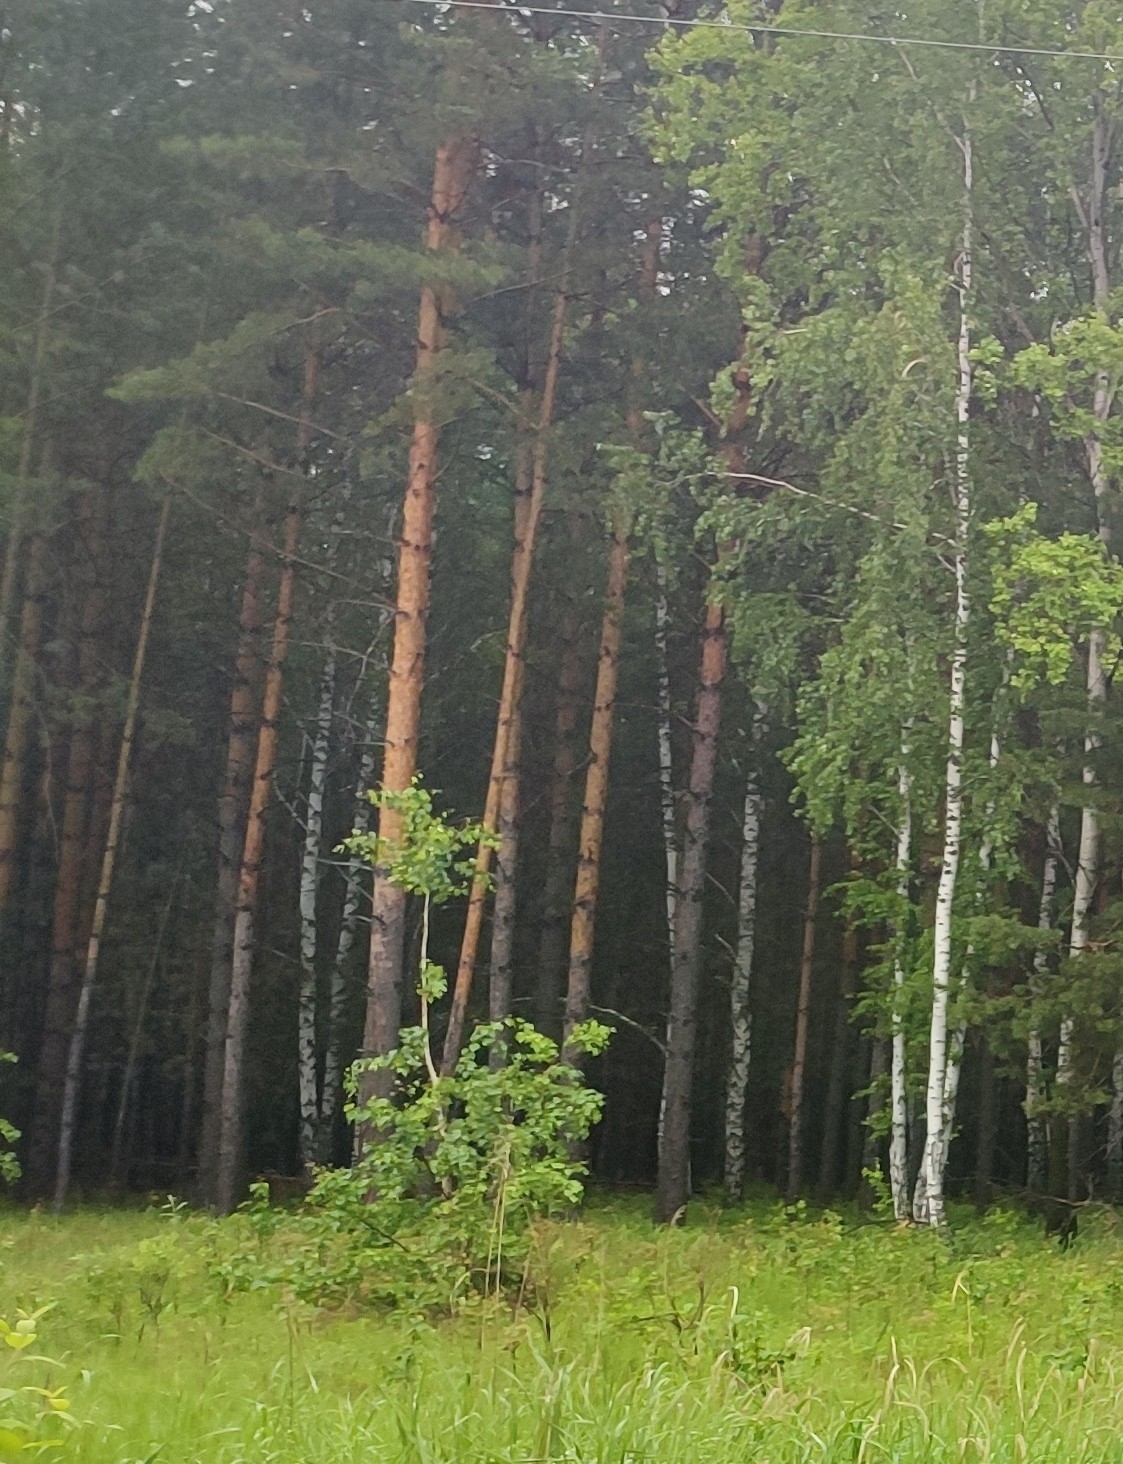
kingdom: Plantae
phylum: Tracheophyta
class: Pinopsida
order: Pinales
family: Pinaceae
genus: Pinus
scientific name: Pinus sylvestris
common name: Scots pine
